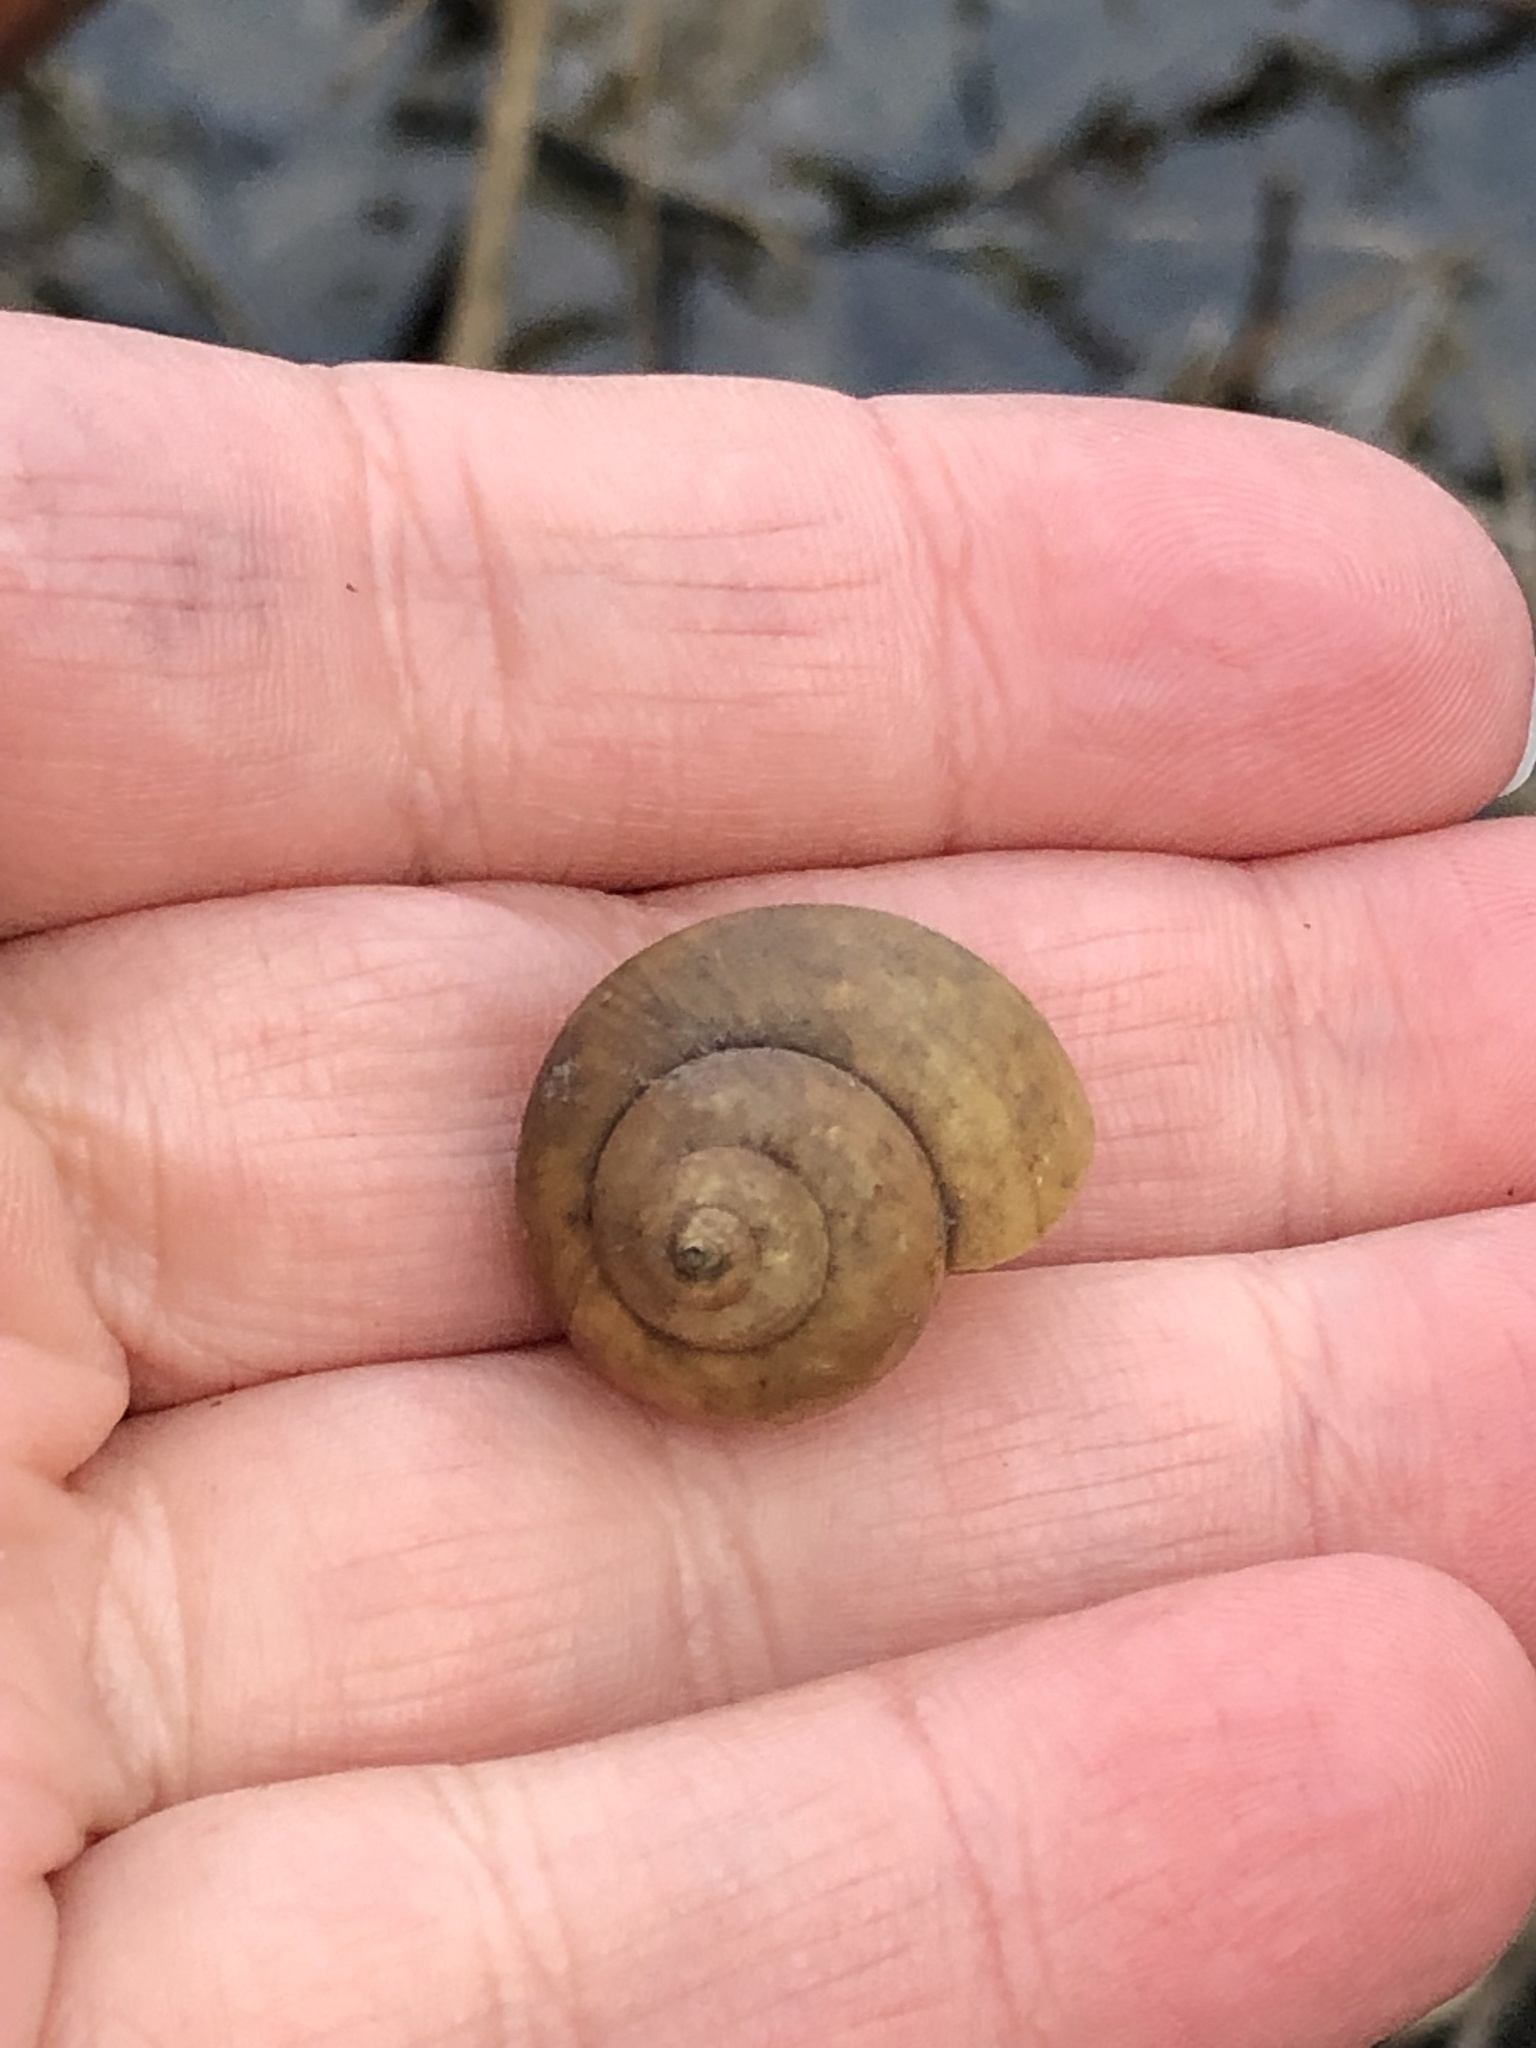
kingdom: Animalia
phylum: Mollusca
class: Gastropoda
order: Architaenioglossa
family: Viviparidae
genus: Cipangopaludina
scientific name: Cipangopaludina chinensis
